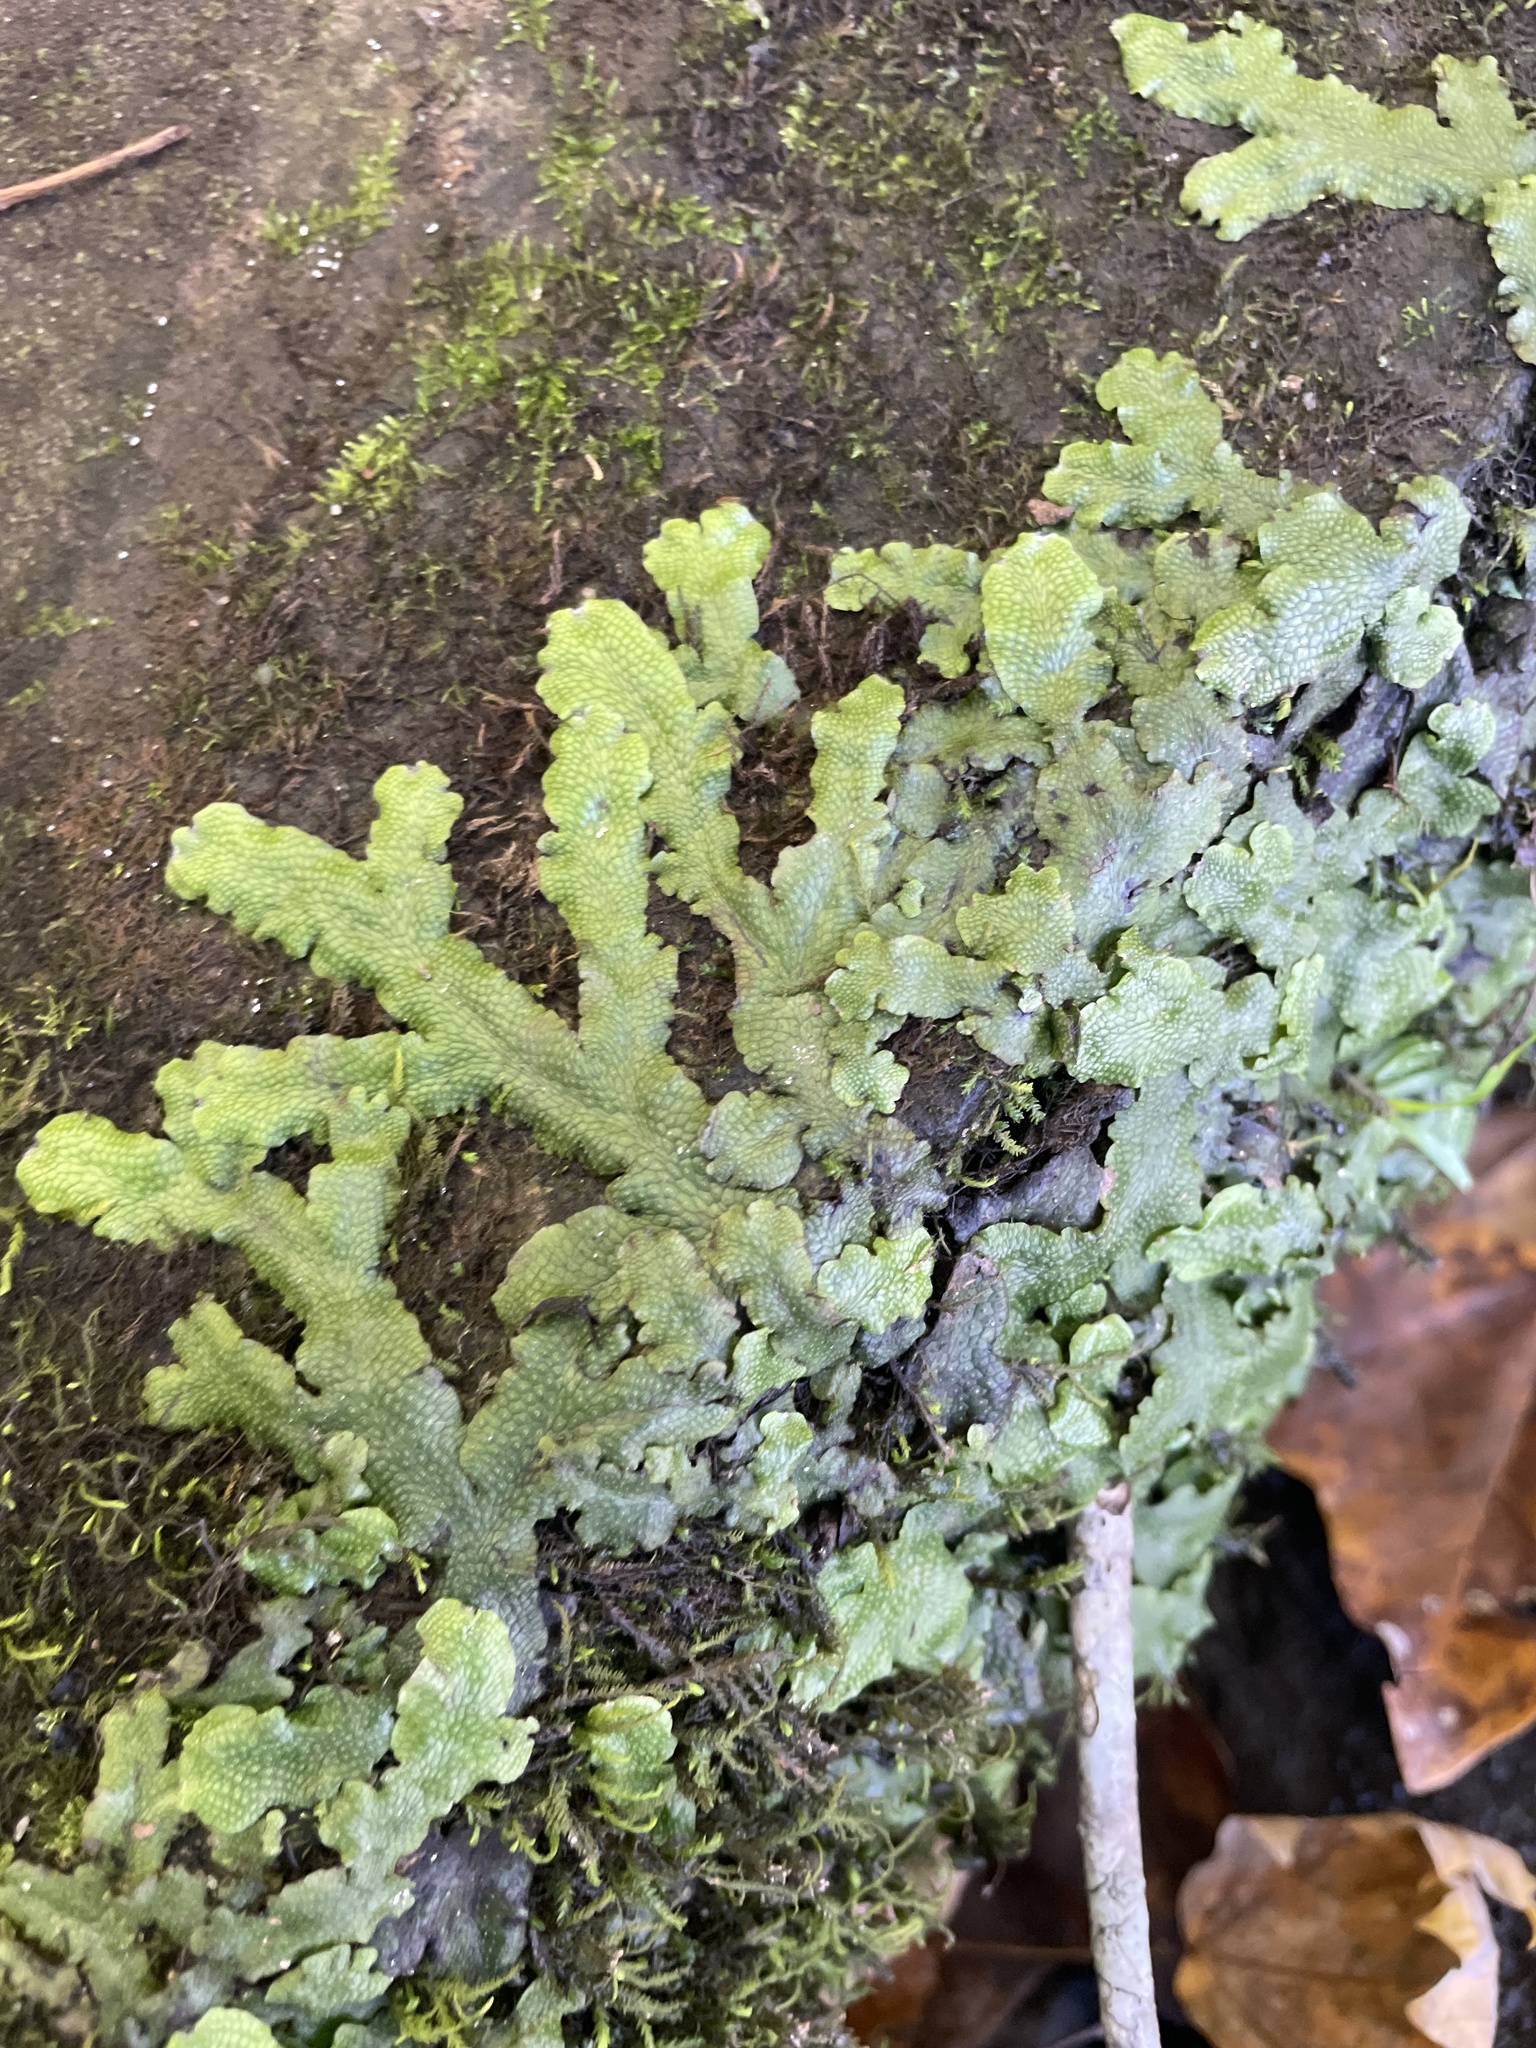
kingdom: Plantae
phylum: Marchantiophyta
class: Marchantiopsida
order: Marchantiales
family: Conocephalaceae
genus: Conocephalum
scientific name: Conocephalum salebrosum
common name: Cat-tongue liverwort
